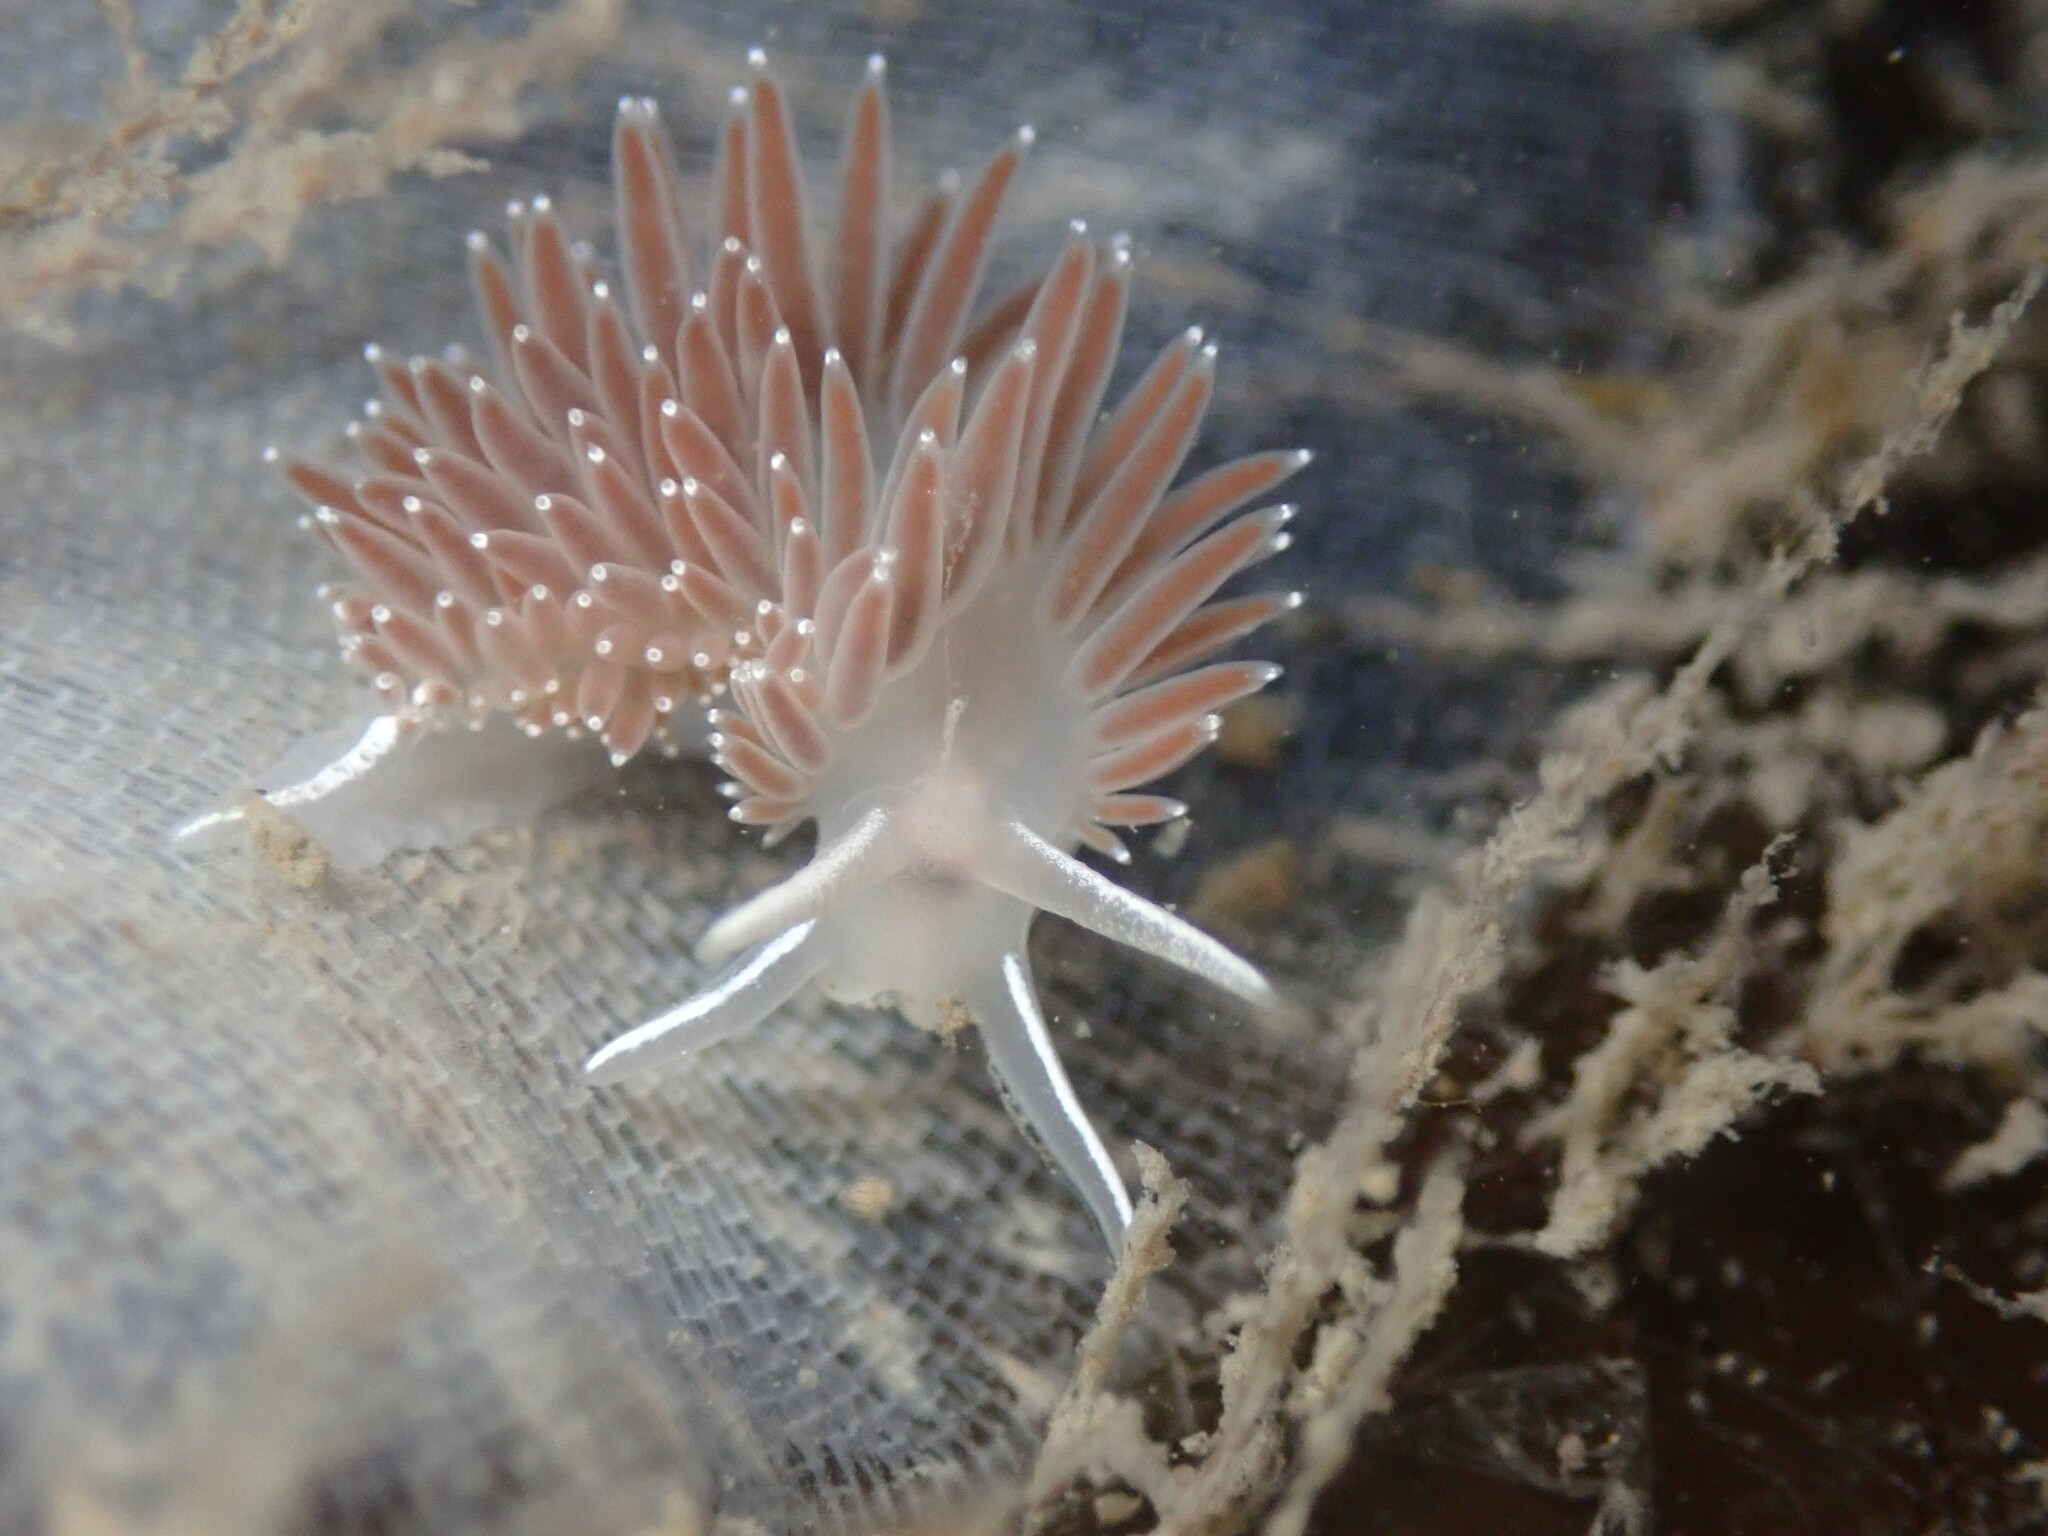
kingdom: Animalia
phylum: Mollusca
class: Gastropoda
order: Nudibranchia
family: Coryphellidae
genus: Coryphella
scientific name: Coryphella verrucosa
